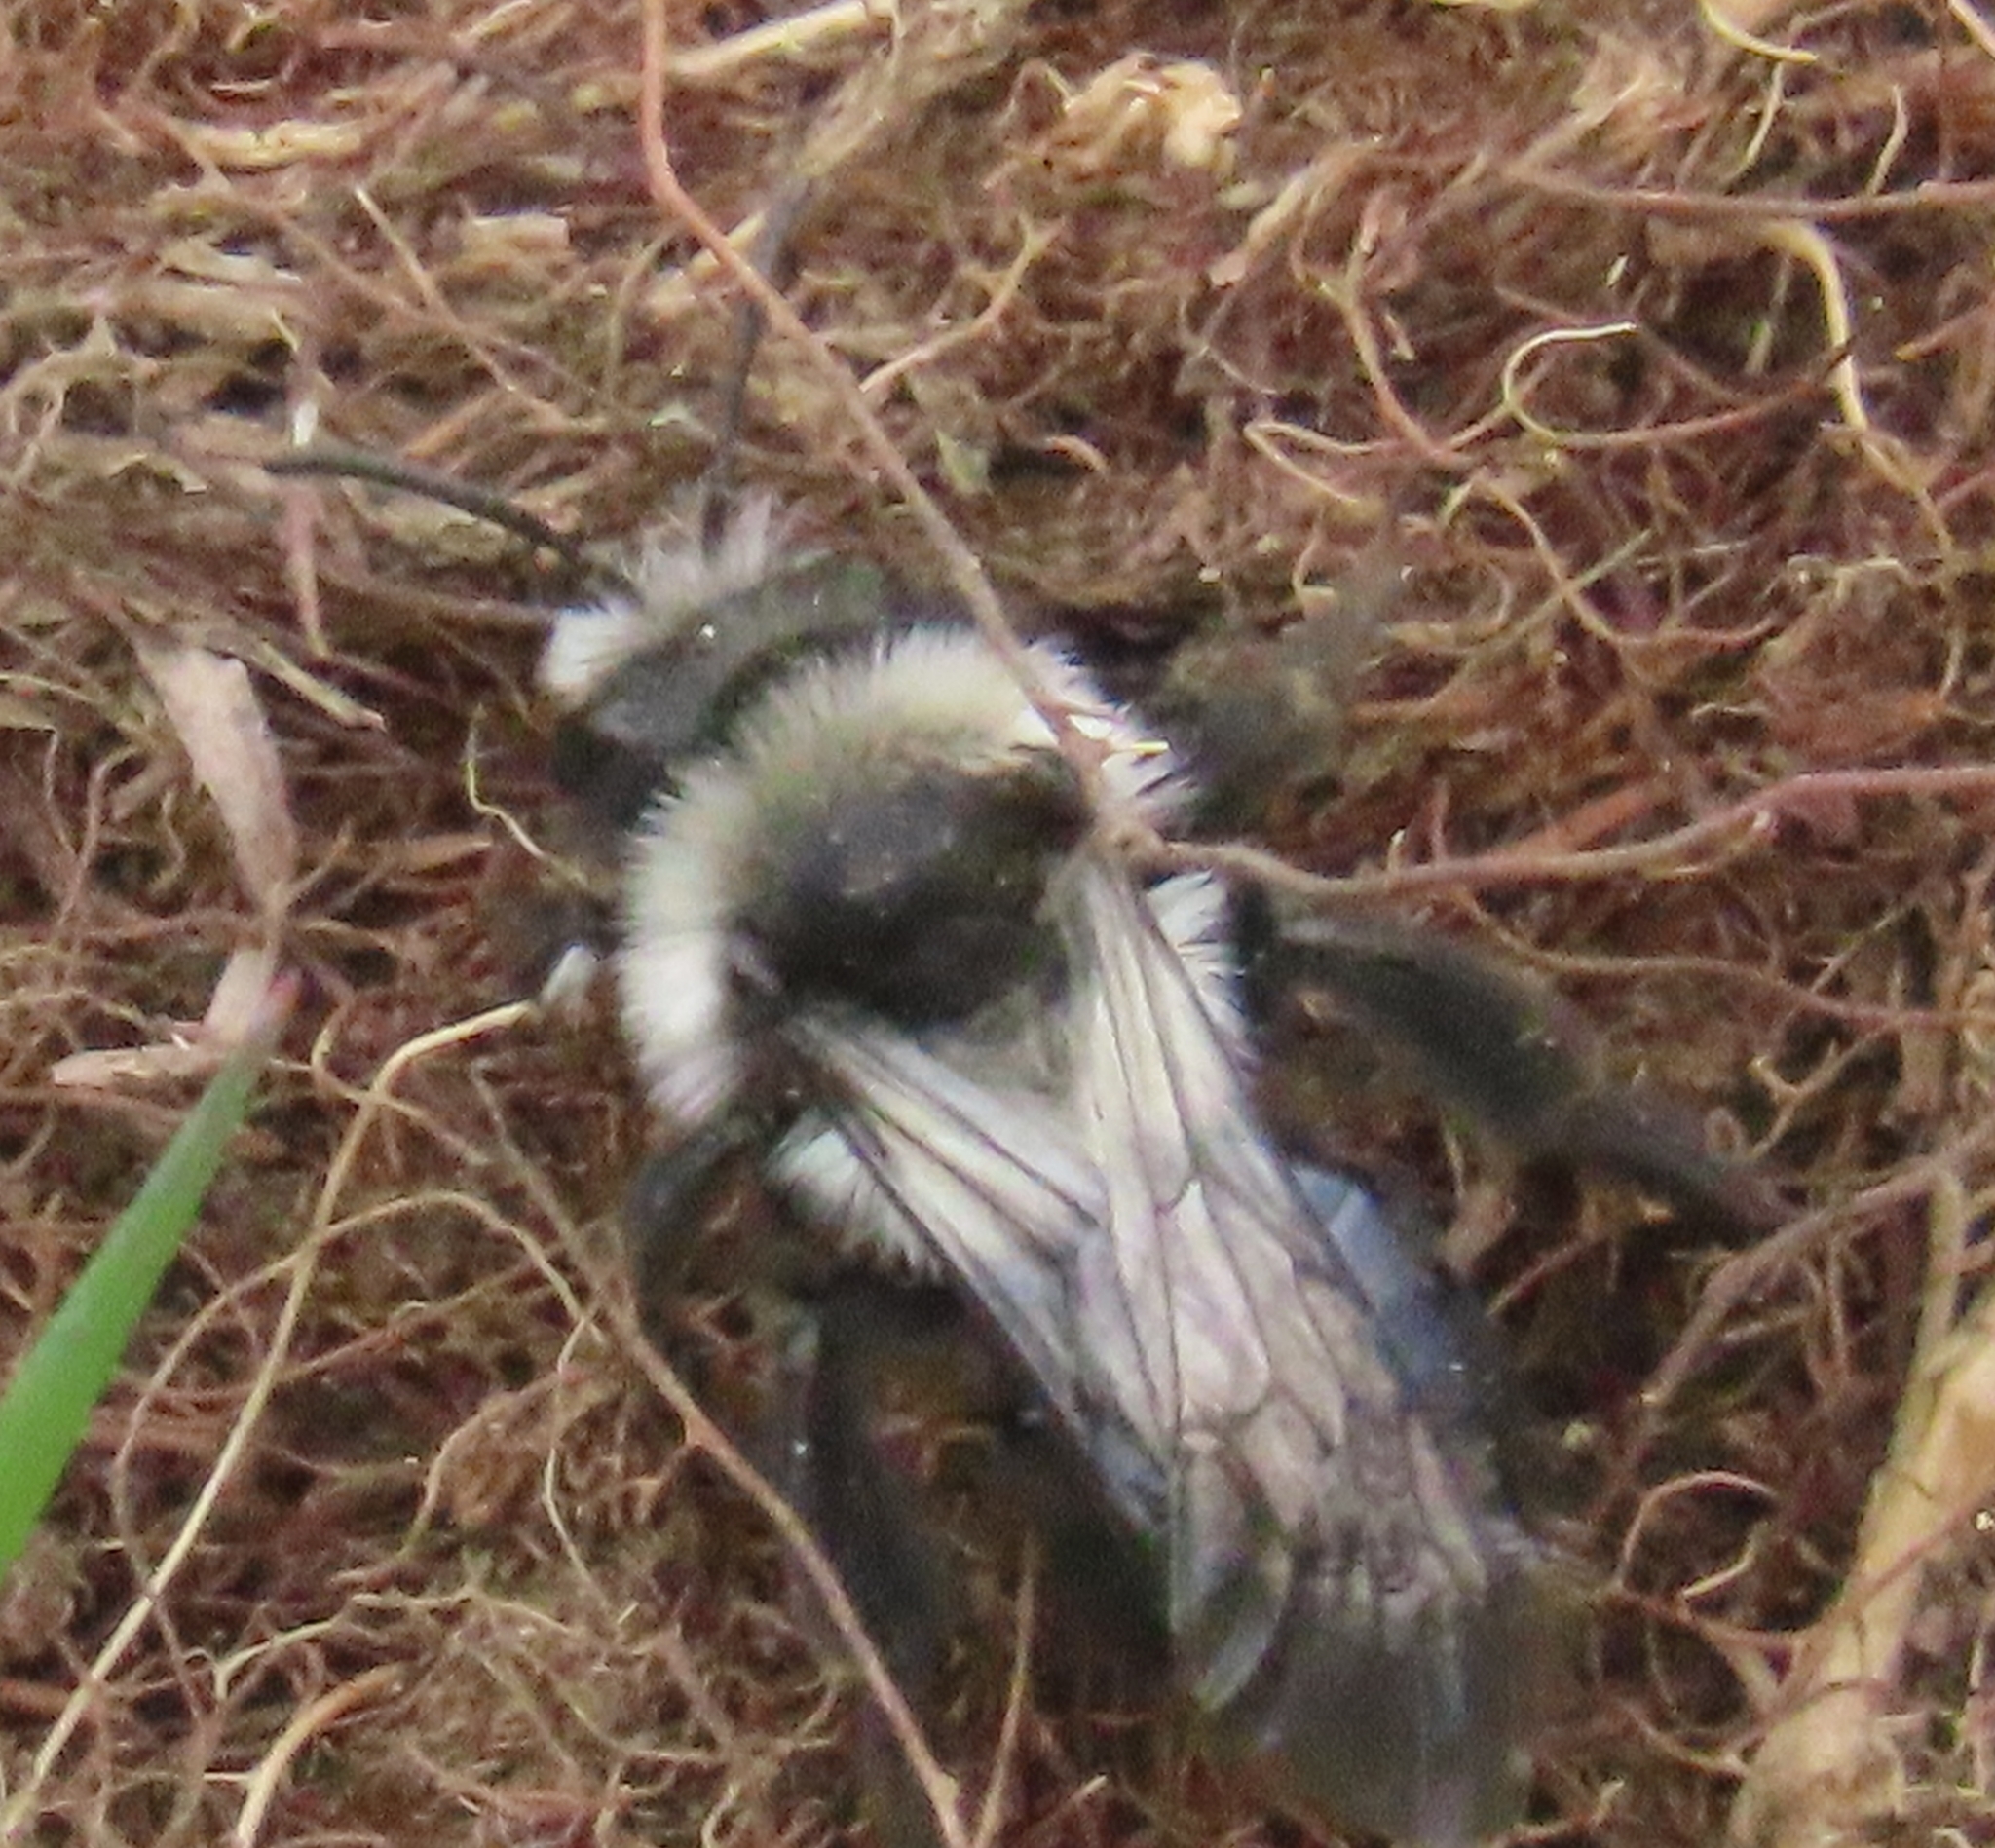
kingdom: Animalia
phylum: Arthropoda
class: Insecta
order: Hymenoptera
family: Andrenidae
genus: Andrena
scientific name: Andrena cineraria
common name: Ashy mining bee
